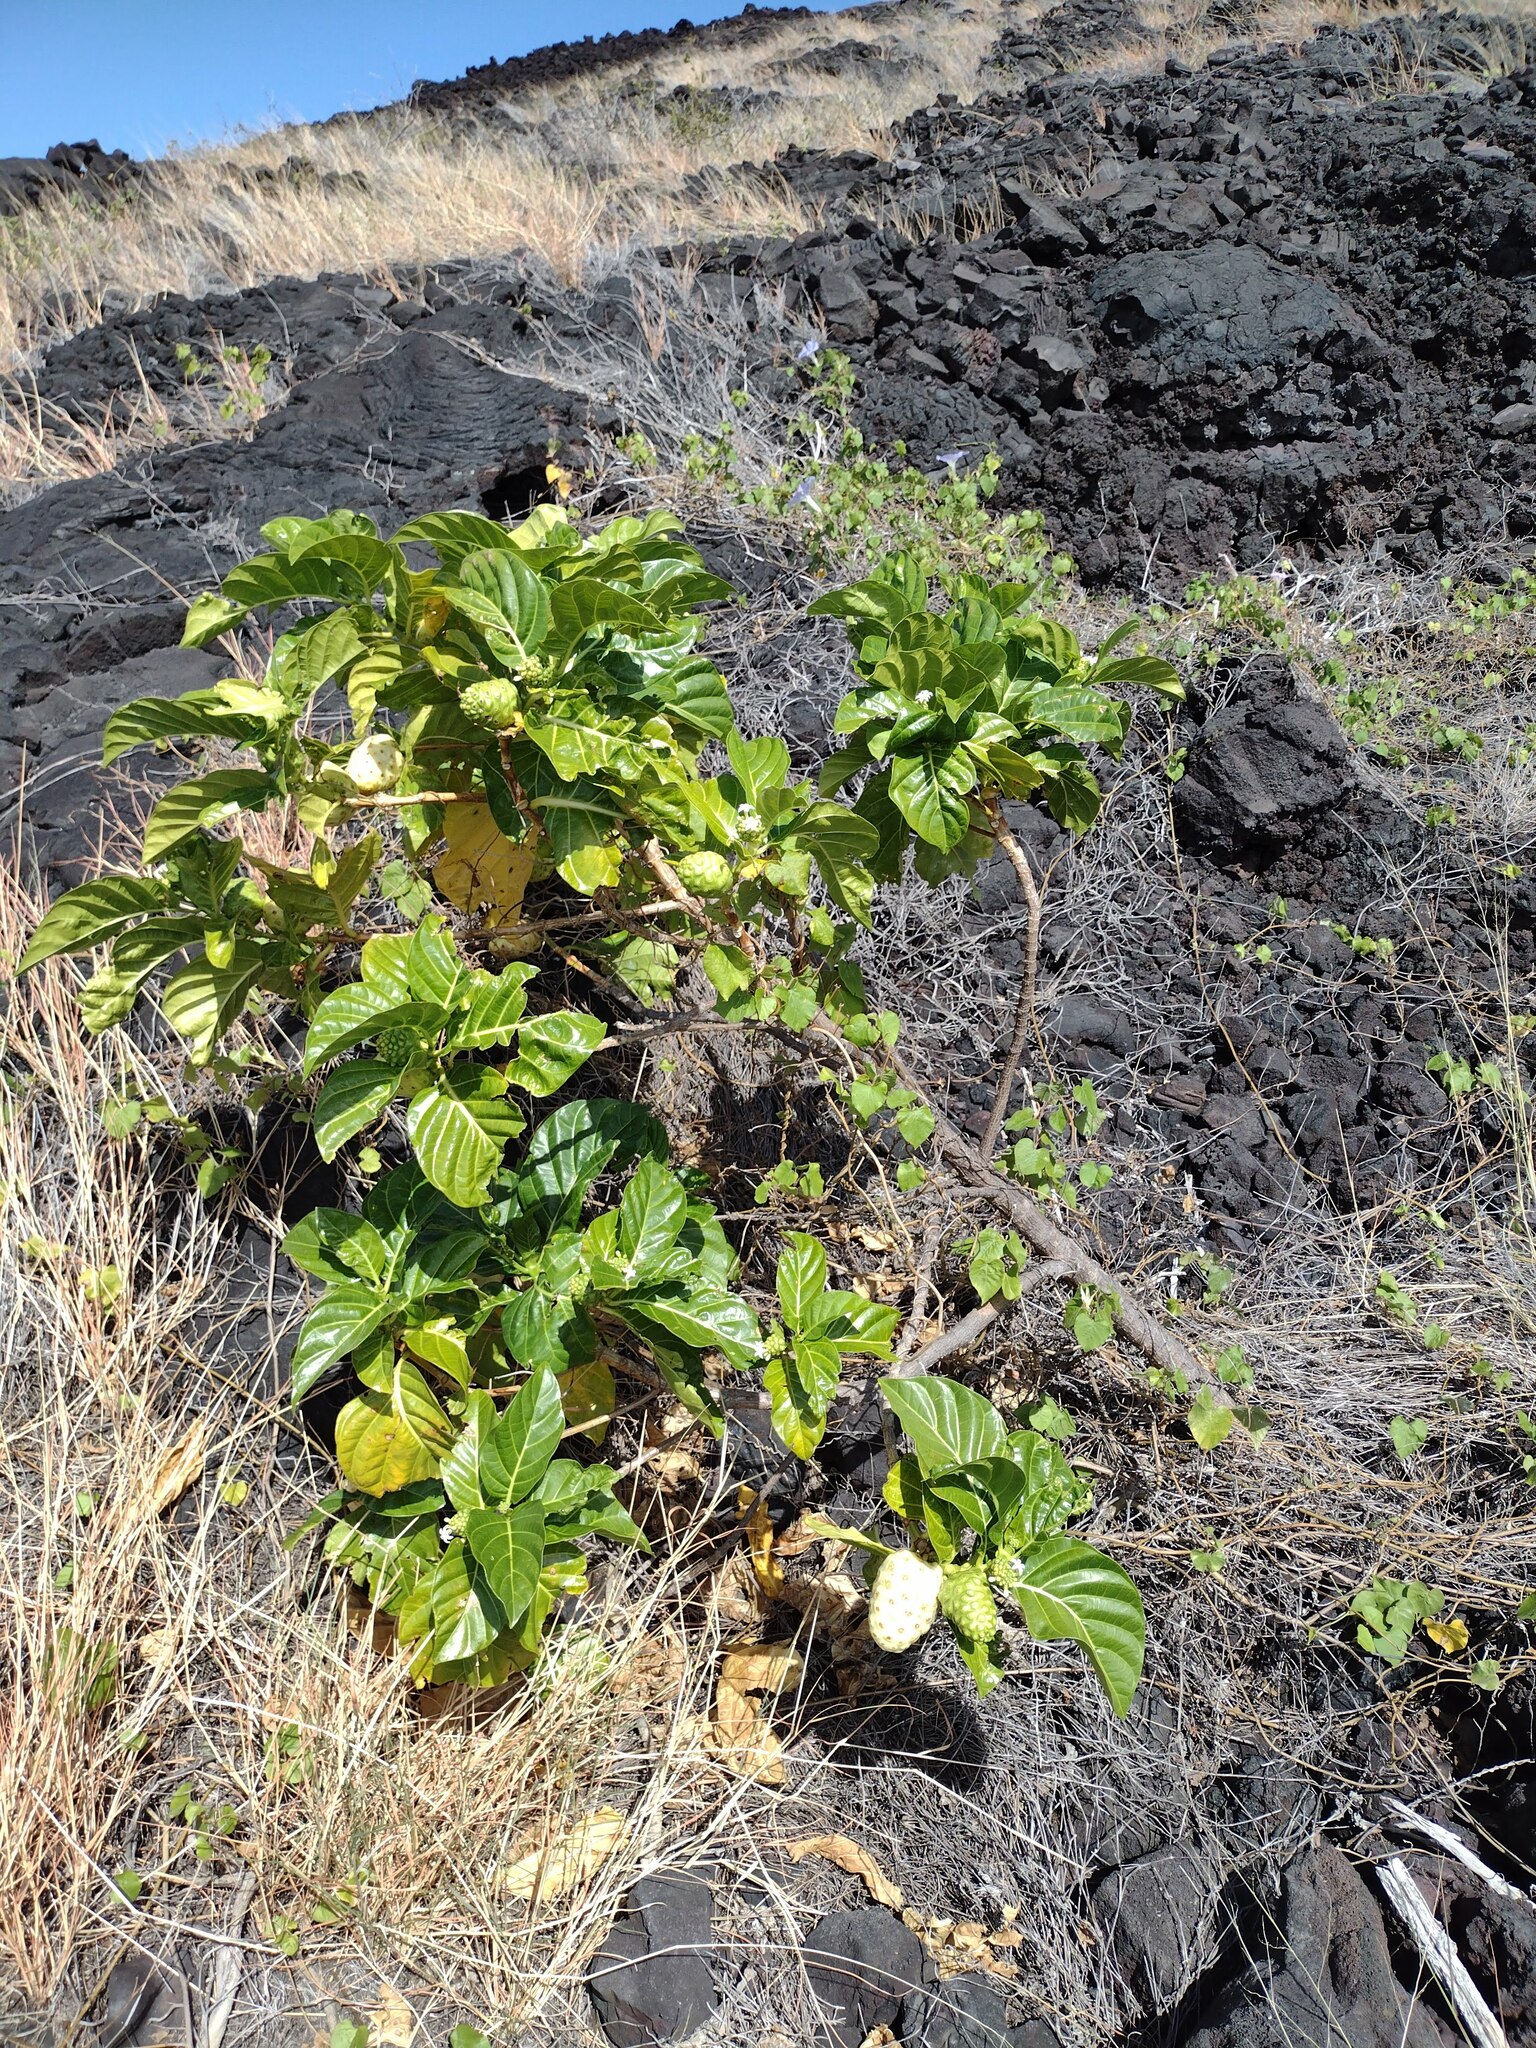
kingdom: Plantae
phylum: Tracheophyta
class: Magnoliopsida
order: Gentianales
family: Rubiaceae
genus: Morinda
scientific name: Morinda citrifolia
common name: Indian-mulberry
